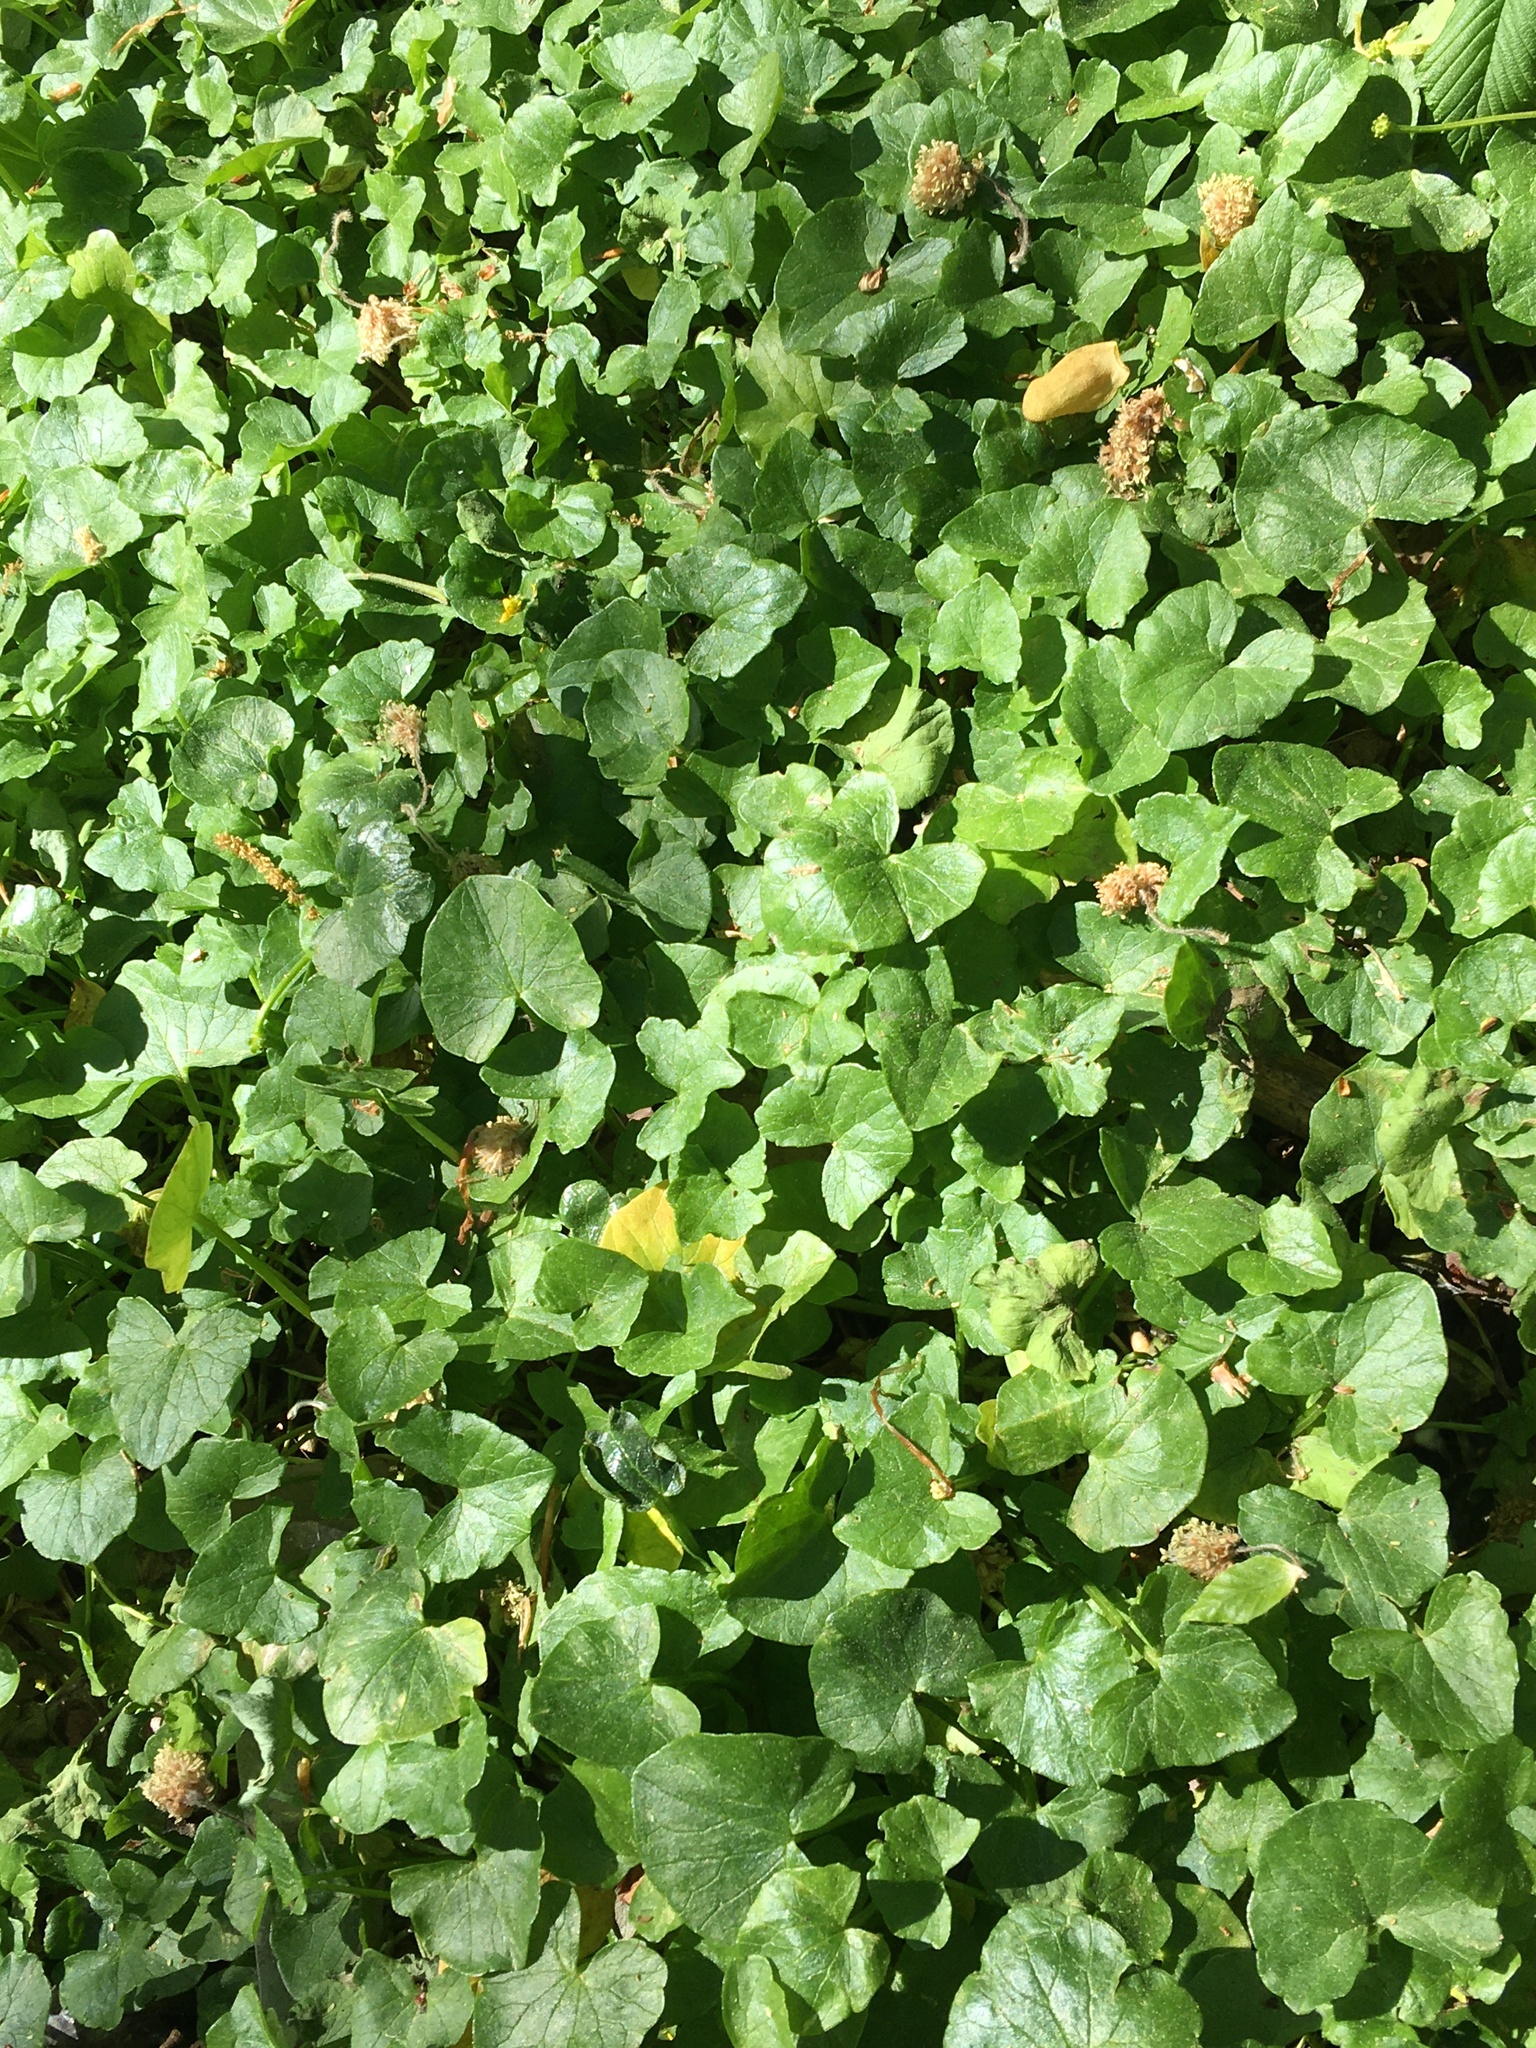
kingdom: Plantae
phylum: Tracheophyta
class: Magnoliopsida
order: Ranunculales
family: Ranunculaceae
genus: Ficaria
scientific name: Ficaria verna
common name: Lesser celandine
